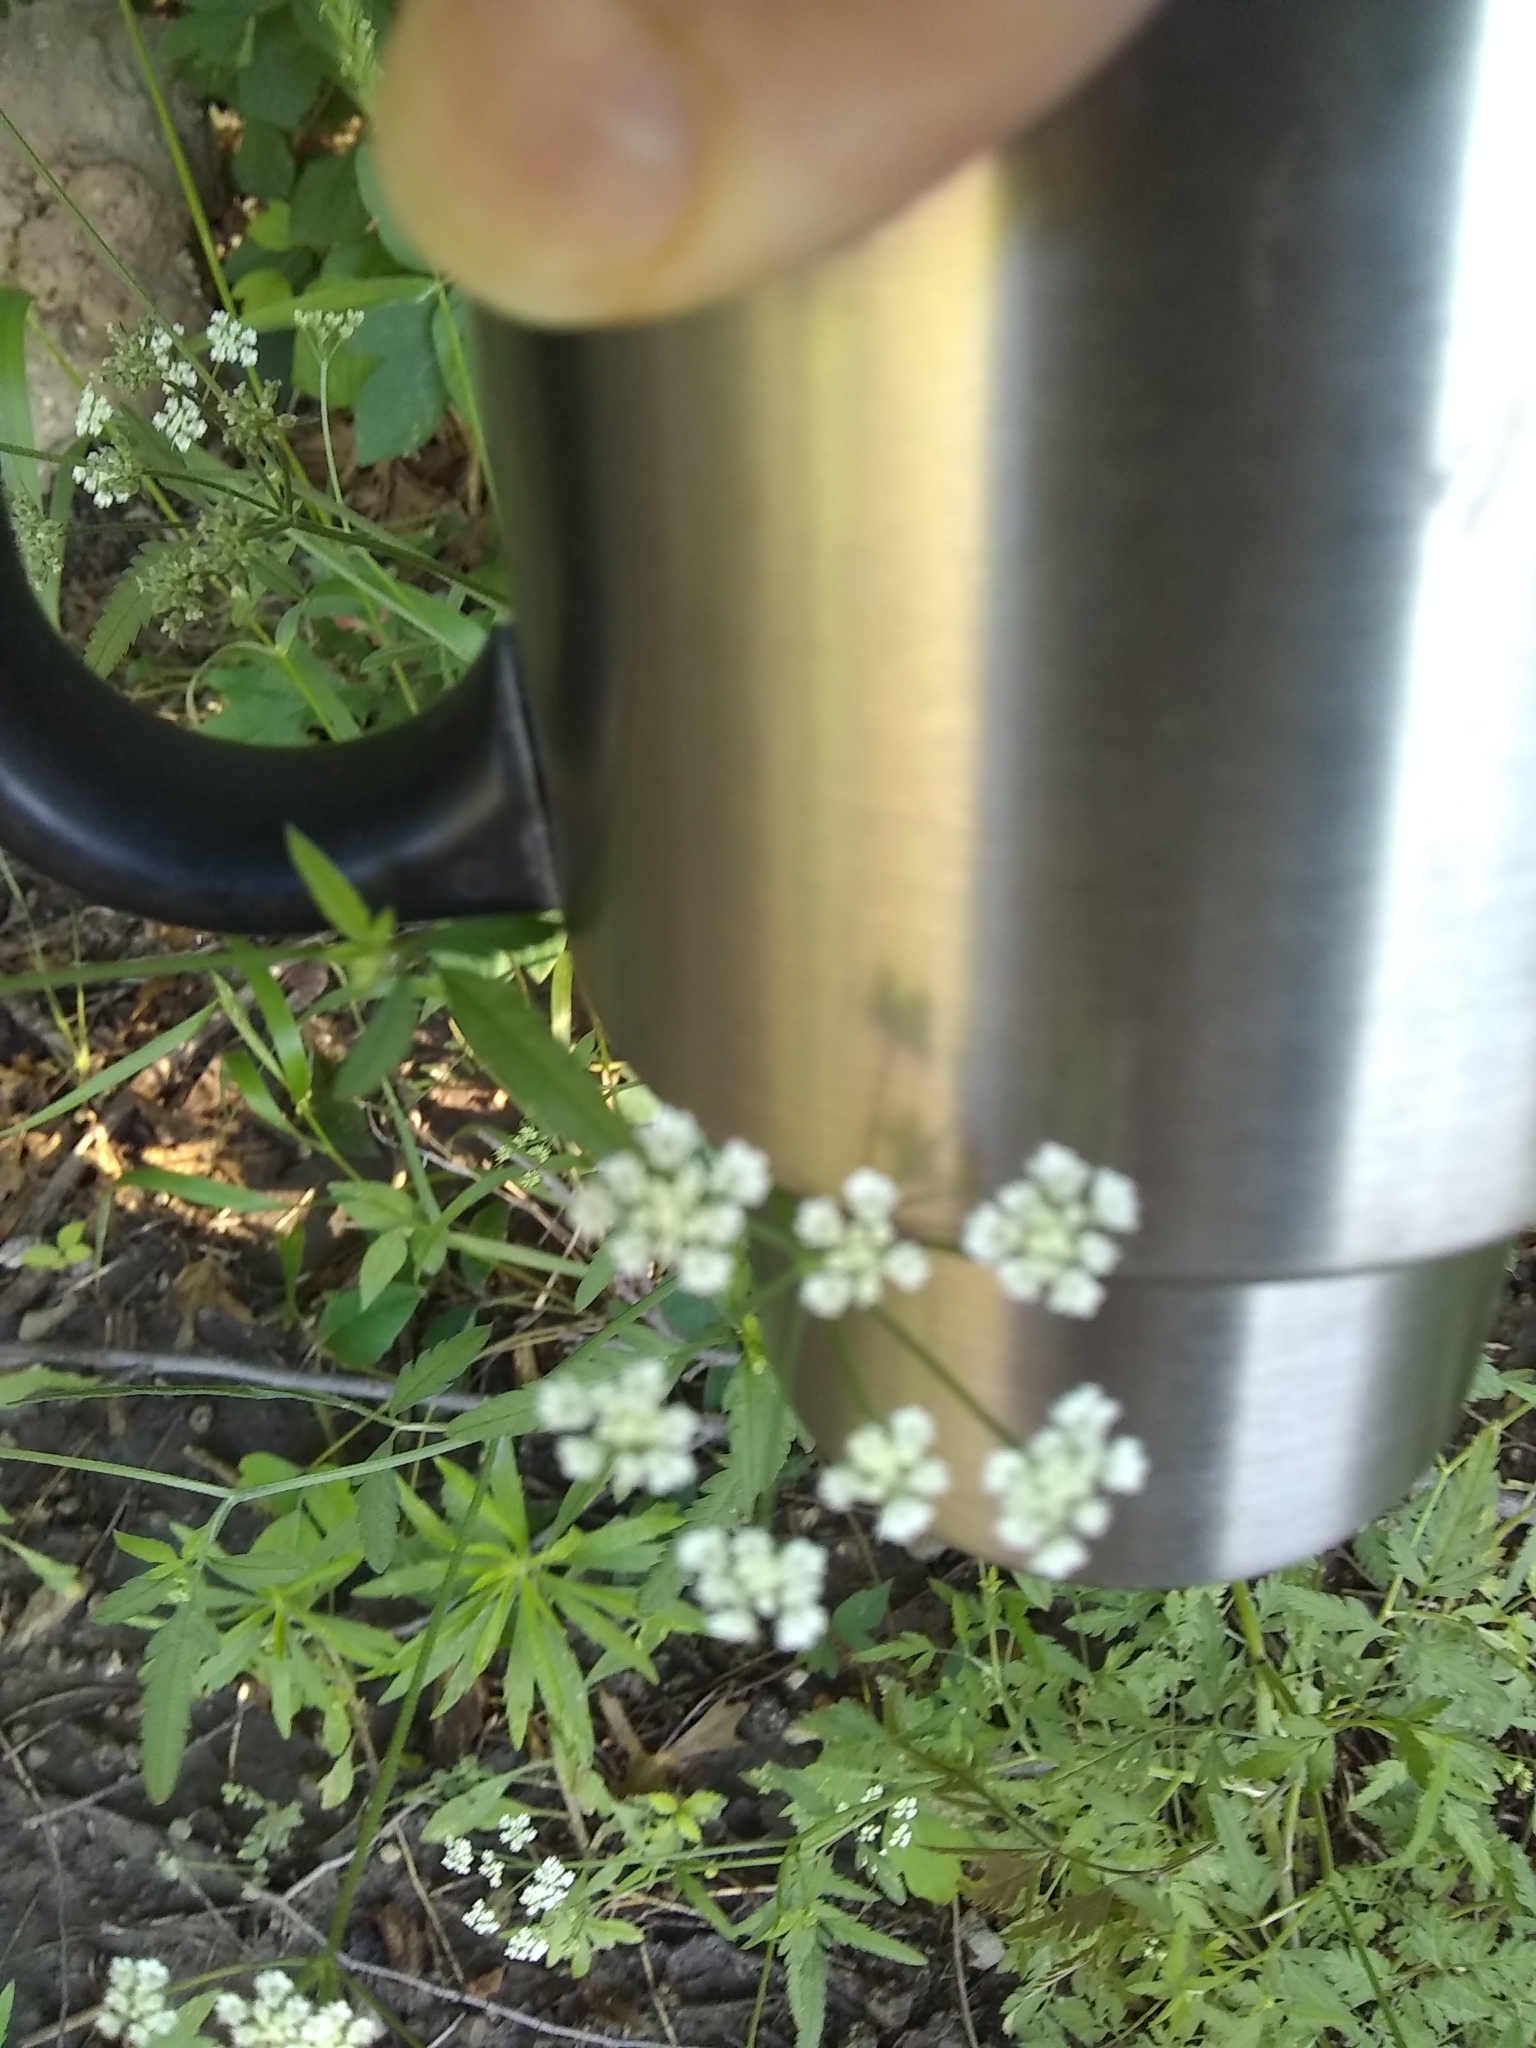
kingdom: Plantae
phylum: Tracheophyta
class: Magnoliopsida
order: Apiales
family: Apiaceae
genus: Torilis
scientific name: Torilis arvensis
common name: Spreading hedge-parsley
